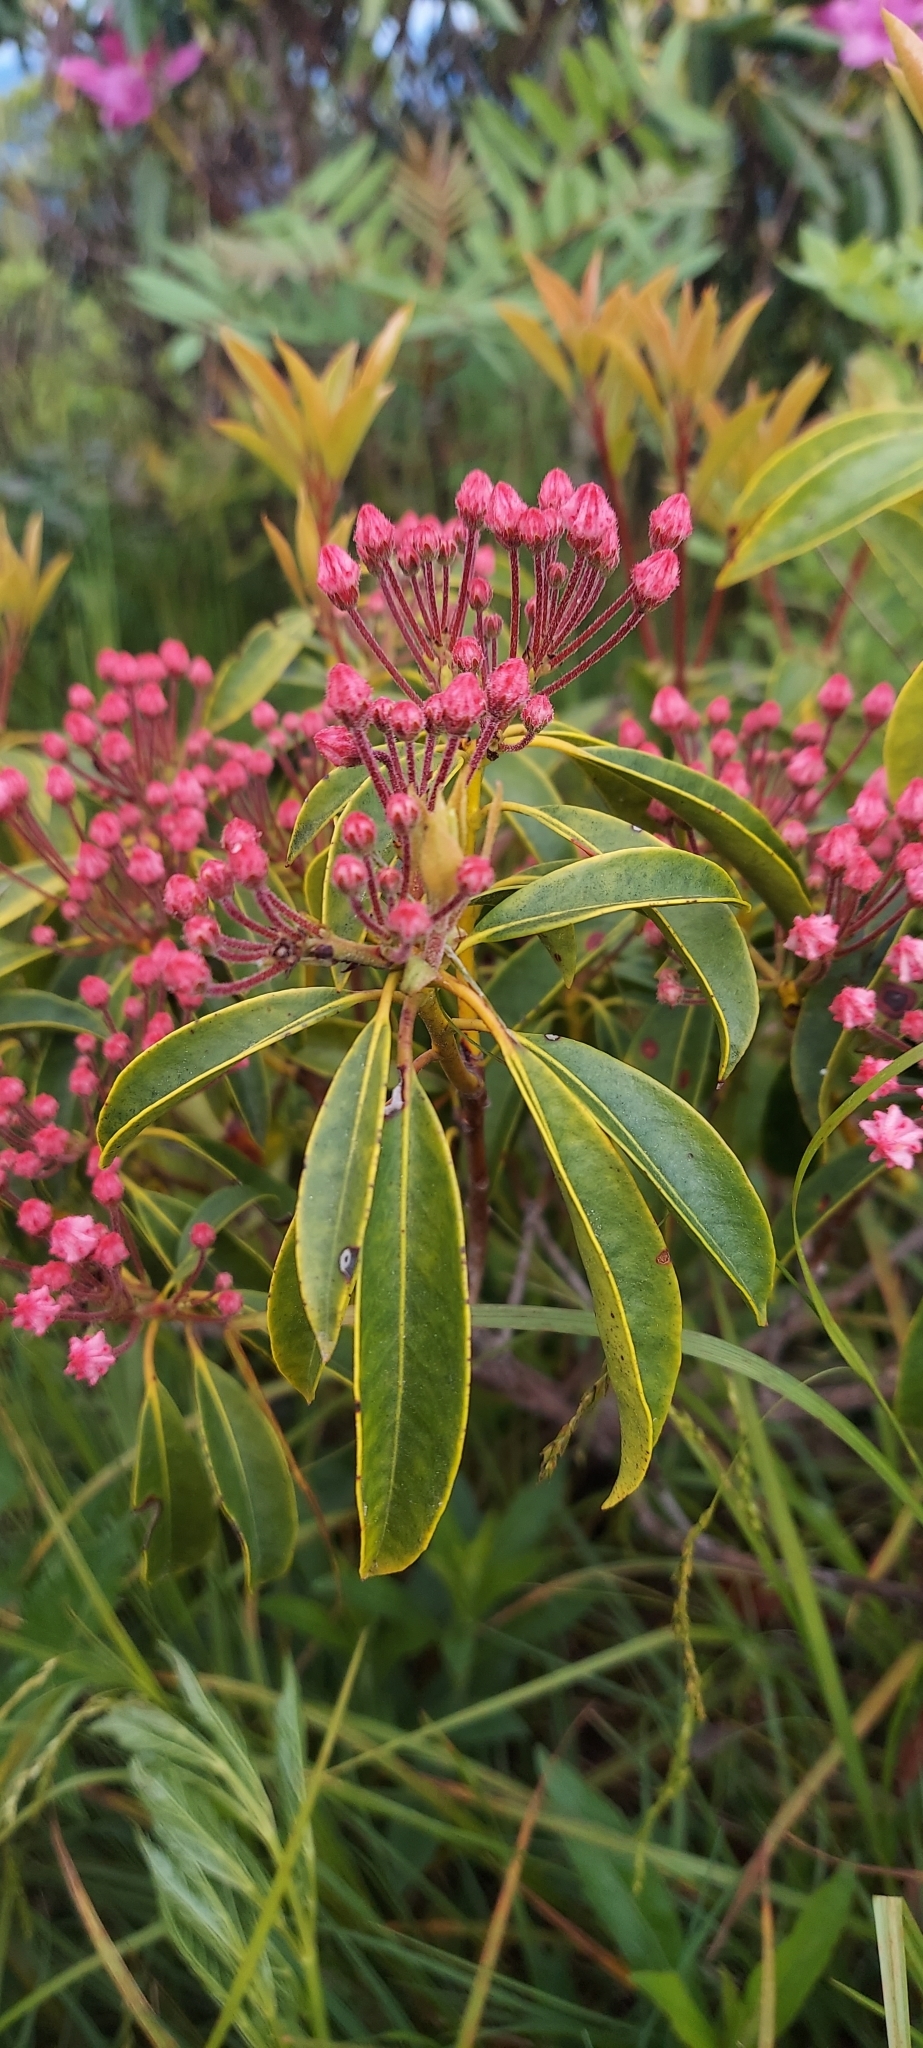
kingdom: Plantae
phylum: Tracheophyta
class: Magnoliopsida
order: Ericales
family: Ericaceae
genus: Kalmia
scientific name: Kalmia latifolia
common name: Mountain-laurel
